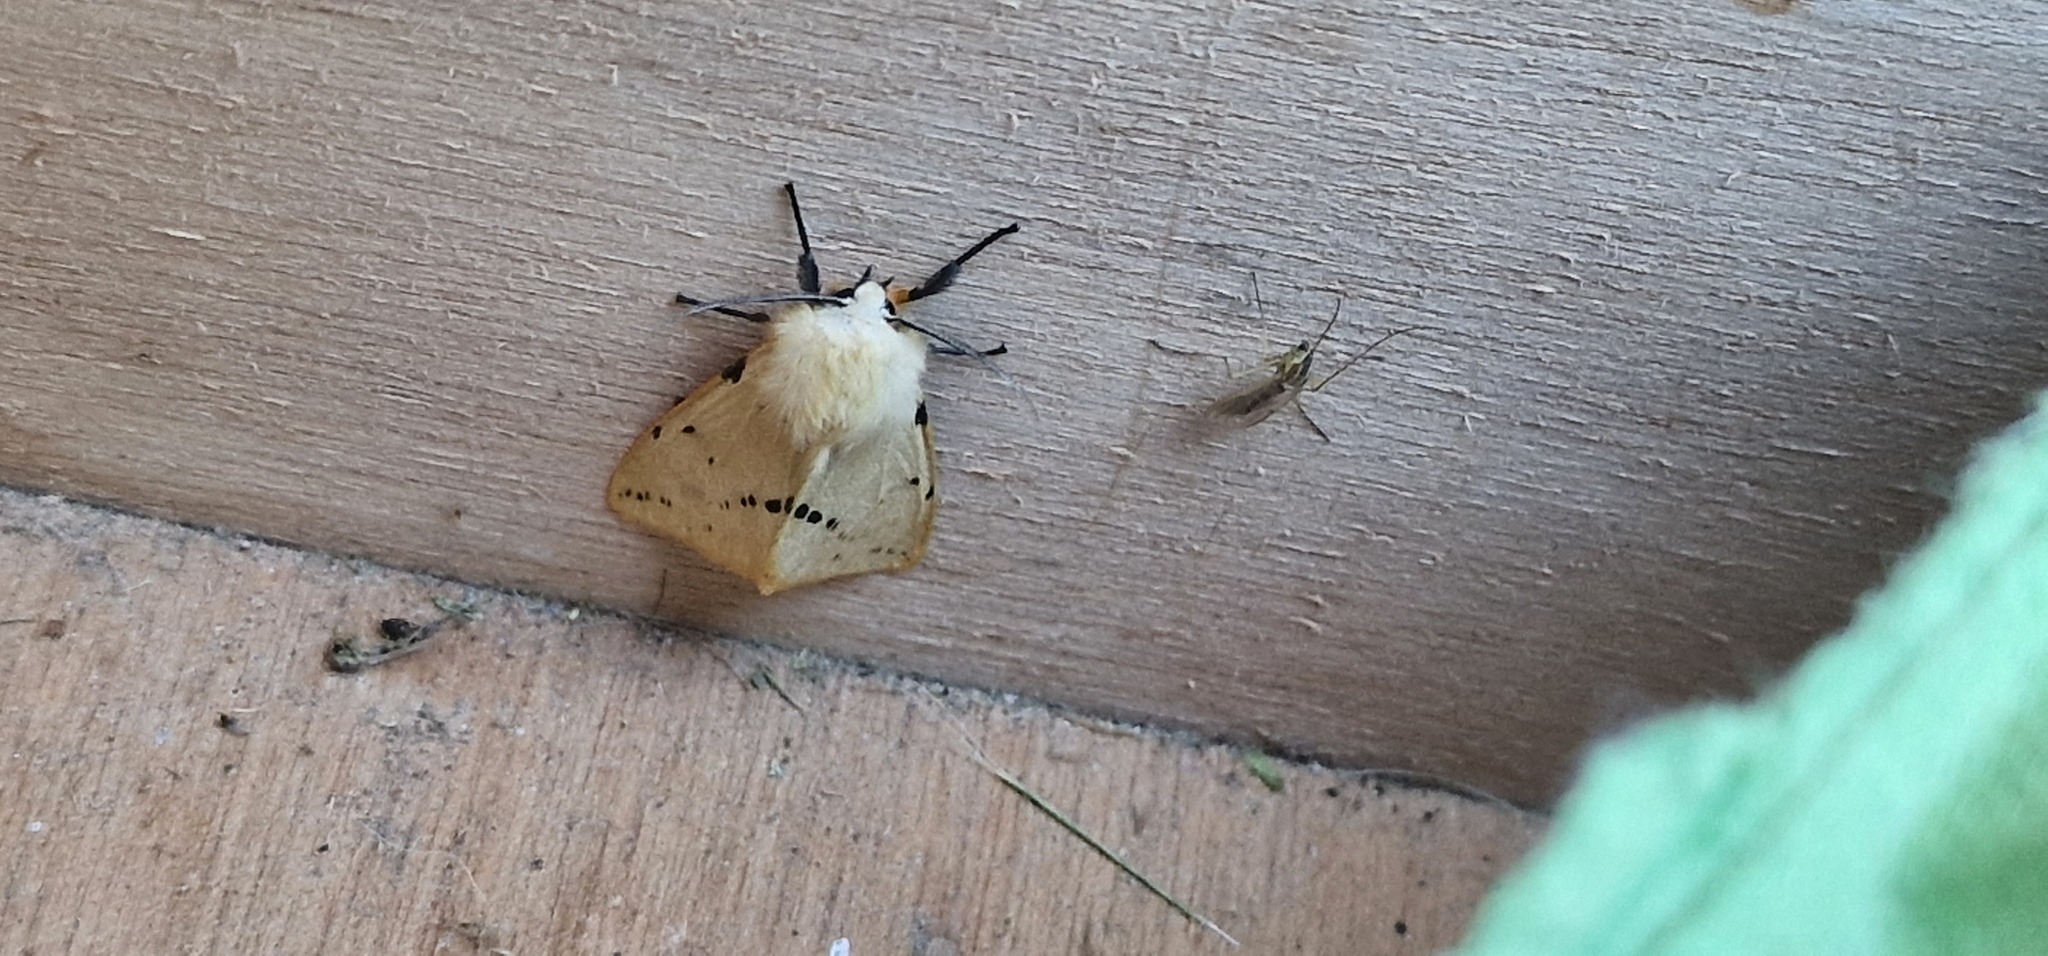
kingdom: Animalia
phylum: Arthropoda
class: Insecta
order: Lepidoptera
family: Erebidae
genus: Spilarctia
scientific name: Spilarctia lutea
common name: Buff ermine
